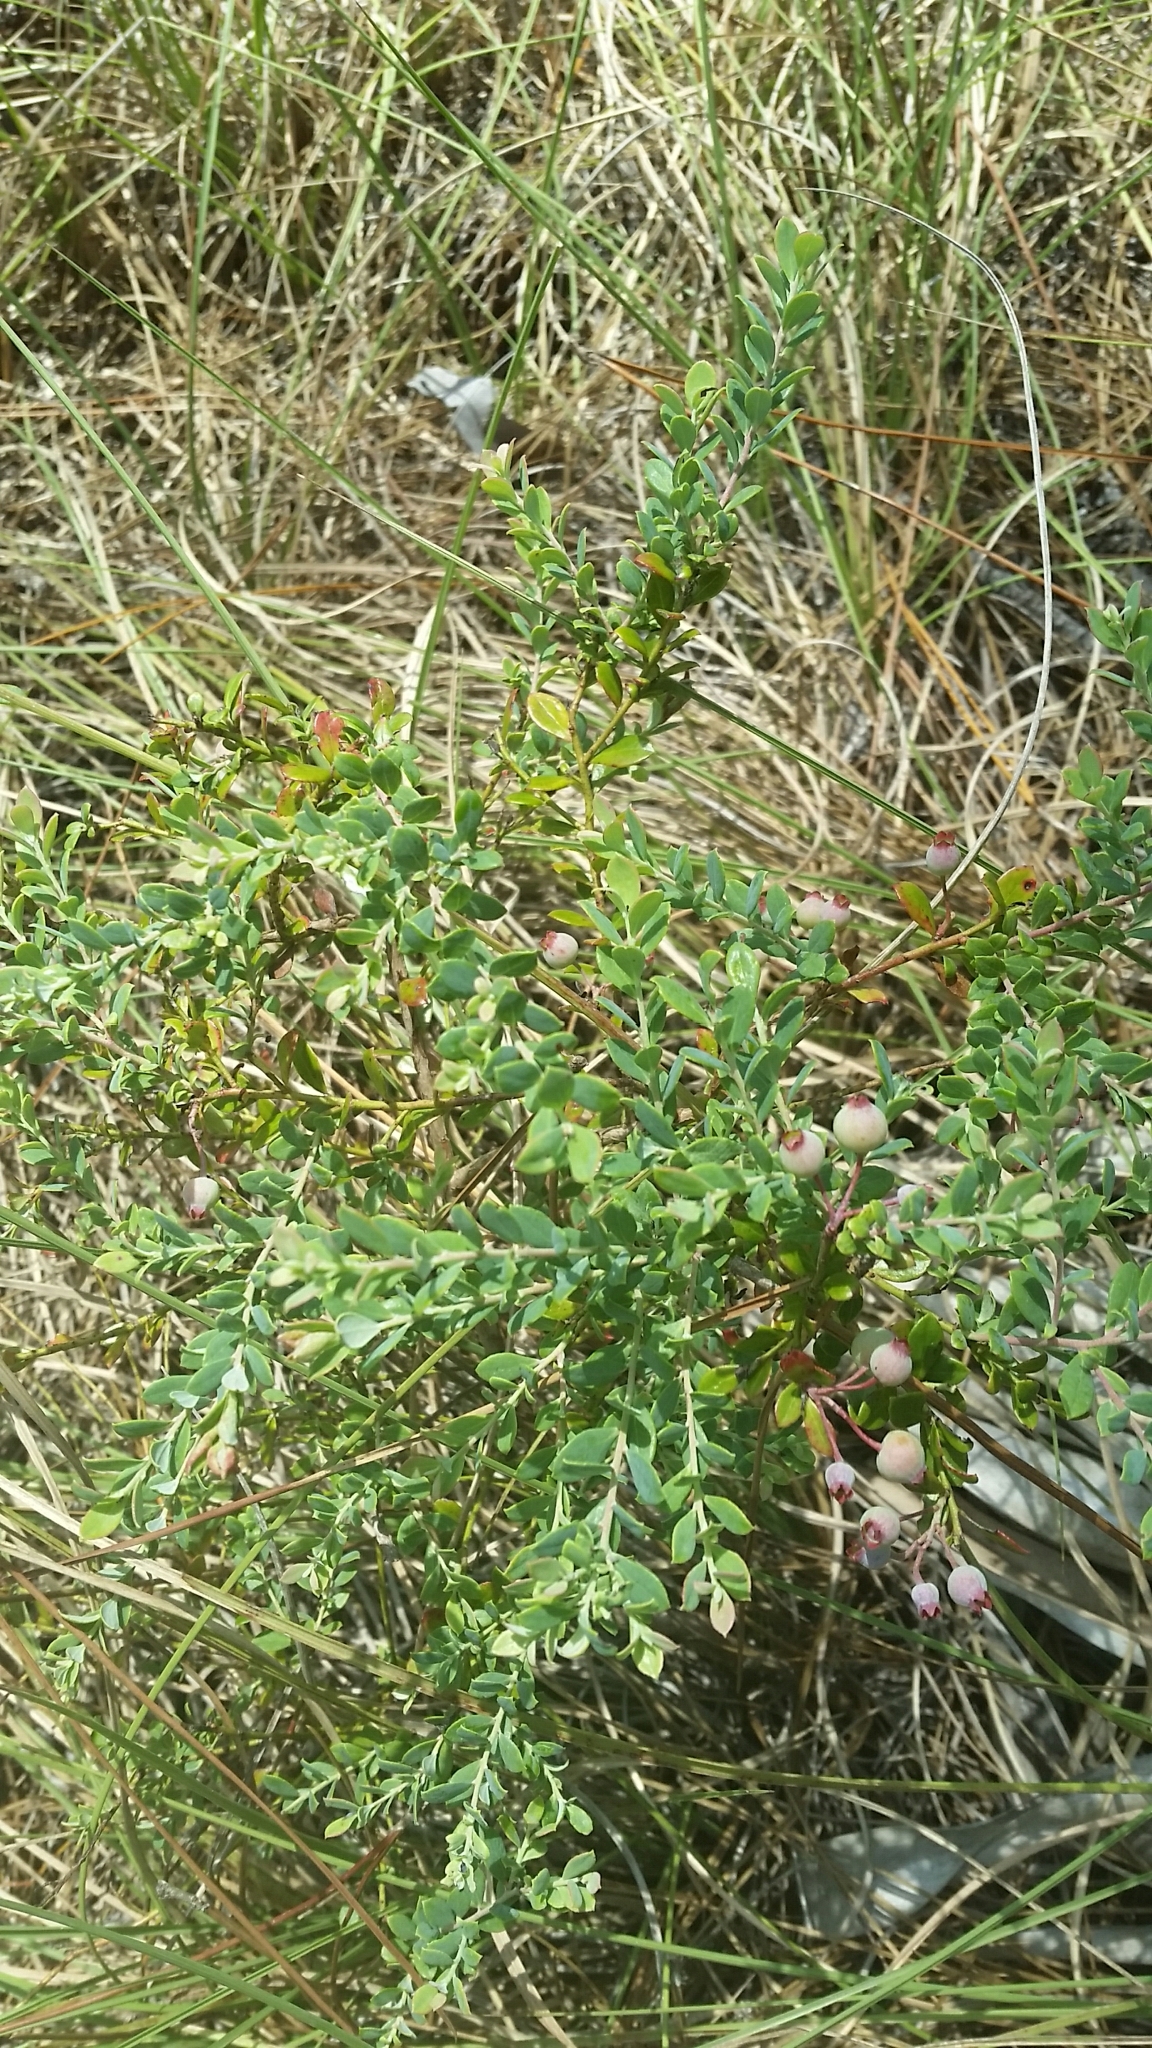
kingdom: Plantae
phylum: Tracheophyta
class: Magnoliopsida
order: Ericales
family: Ericaceae
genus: Vaccinium
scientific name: Vaccinium darrowii
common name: Darrow's blueberry
